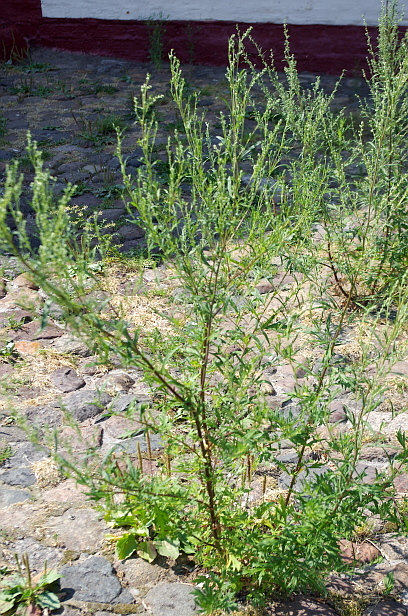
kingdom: Plantae
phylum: Tracheophyta
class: Magnoliopsida
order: Asterales
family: Asteraceae
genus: Artemisia
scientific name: Artemisia vulgaris
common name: Mugwort
